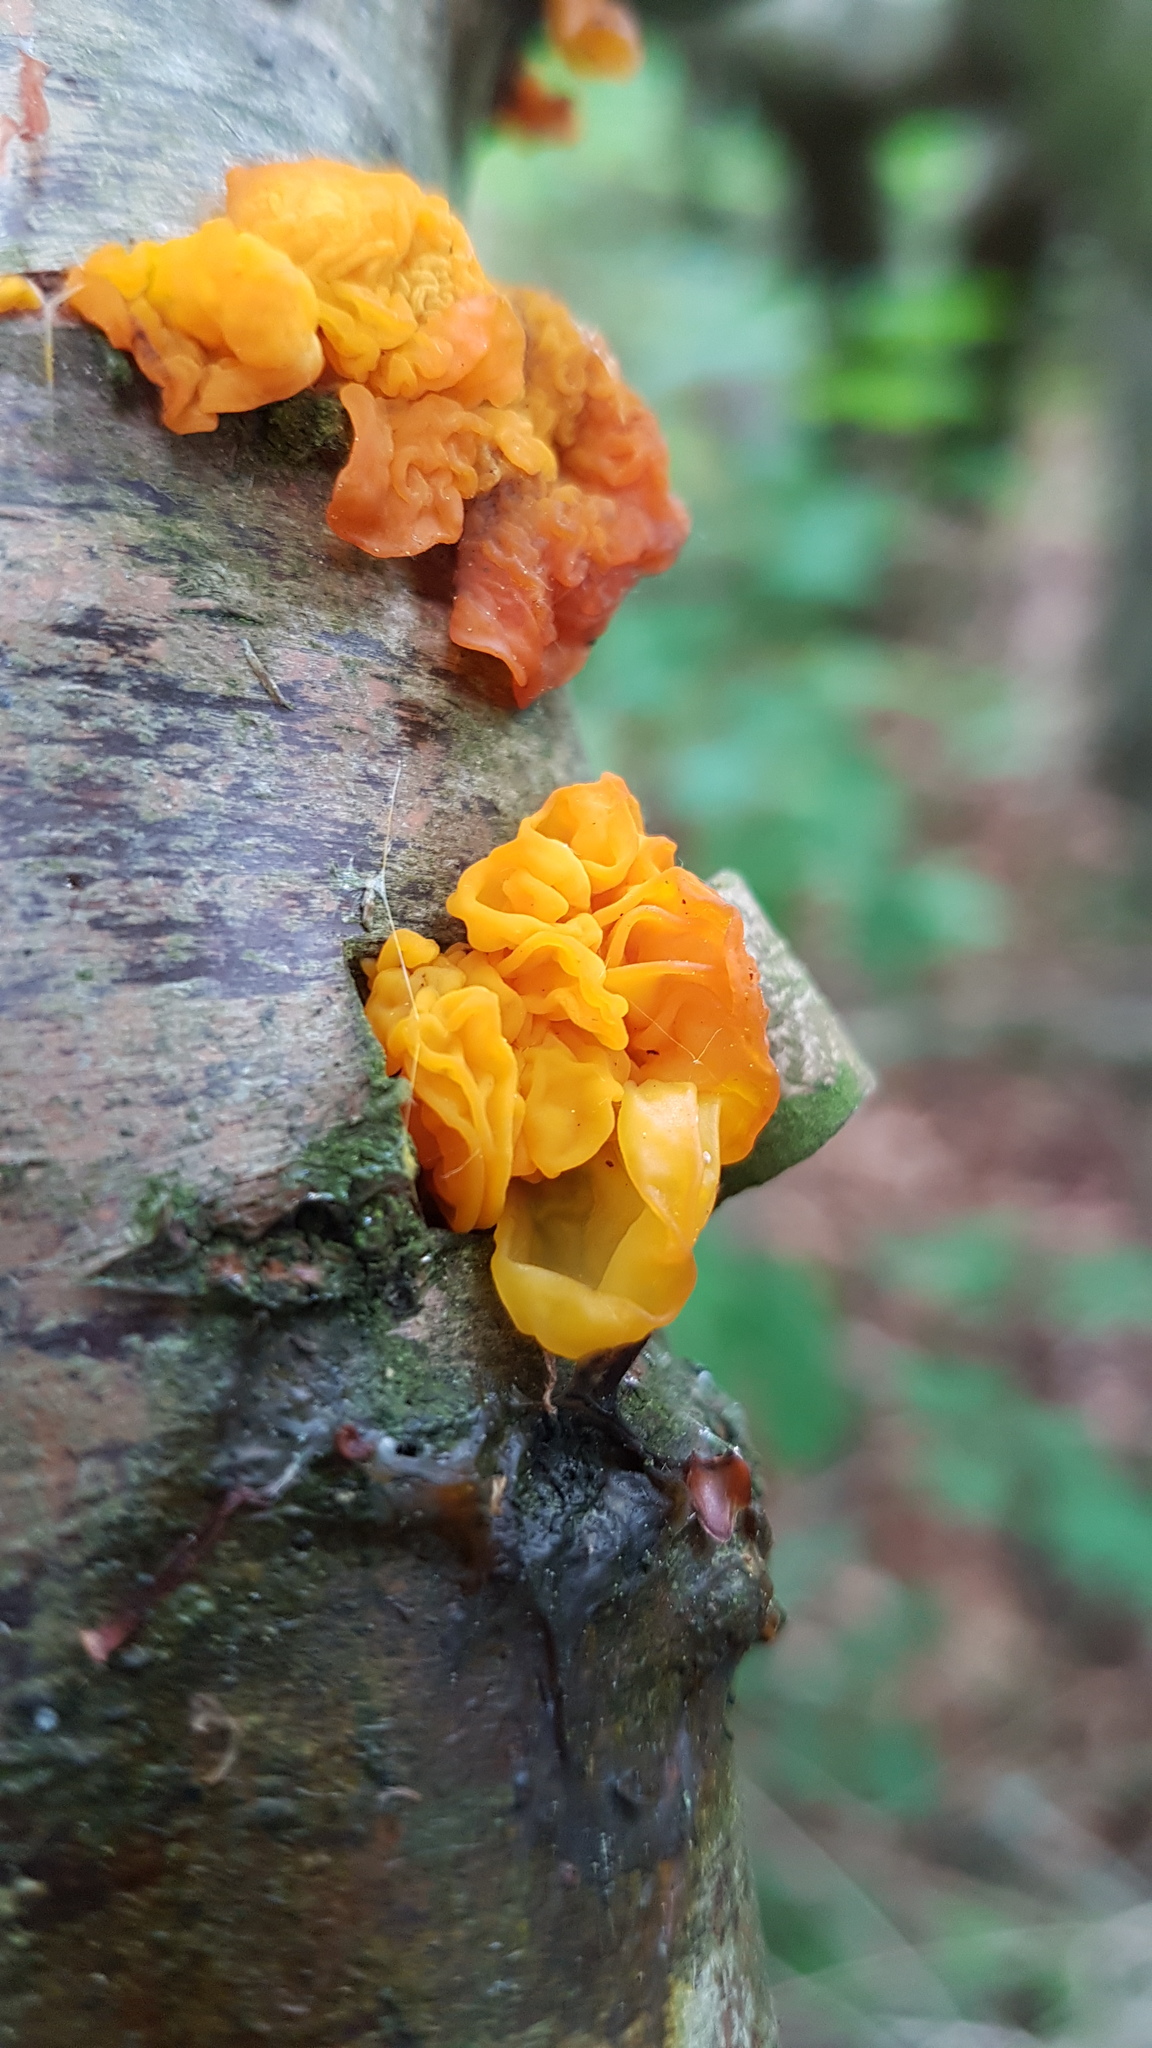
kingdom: Fungi
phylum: Basidiomycota
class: Tremellomycetes
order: Tremellales
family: Tremellaceae
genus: Tremella
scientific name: Tremella mesenterica
